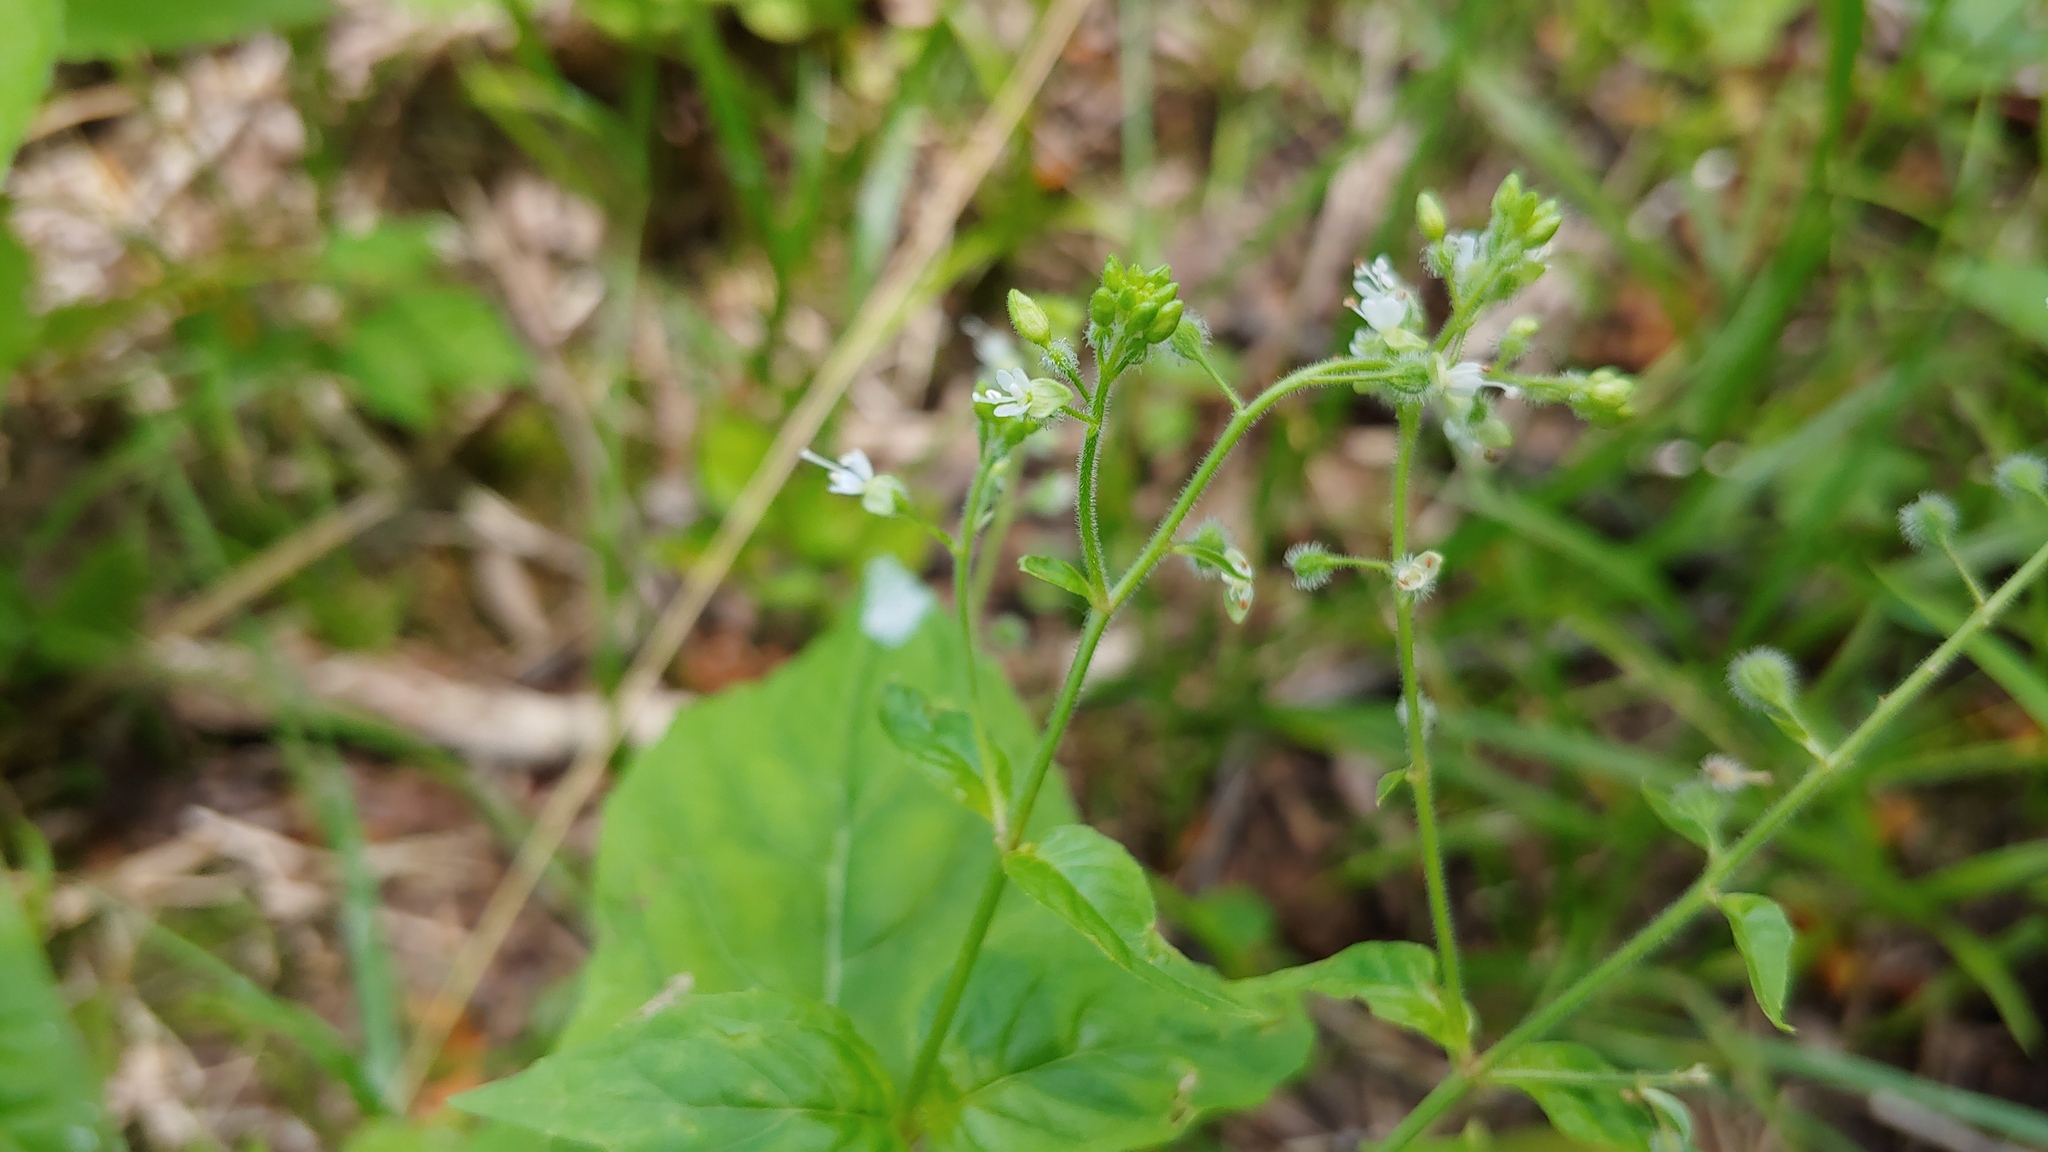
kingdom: Plantae
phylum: Tracheophyta
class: Magnoliopsida
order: Myrtales
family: Onagraceae
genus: Circaea
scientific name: Circaea canadensis
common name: Broad-leaved enchanter's nightshade
